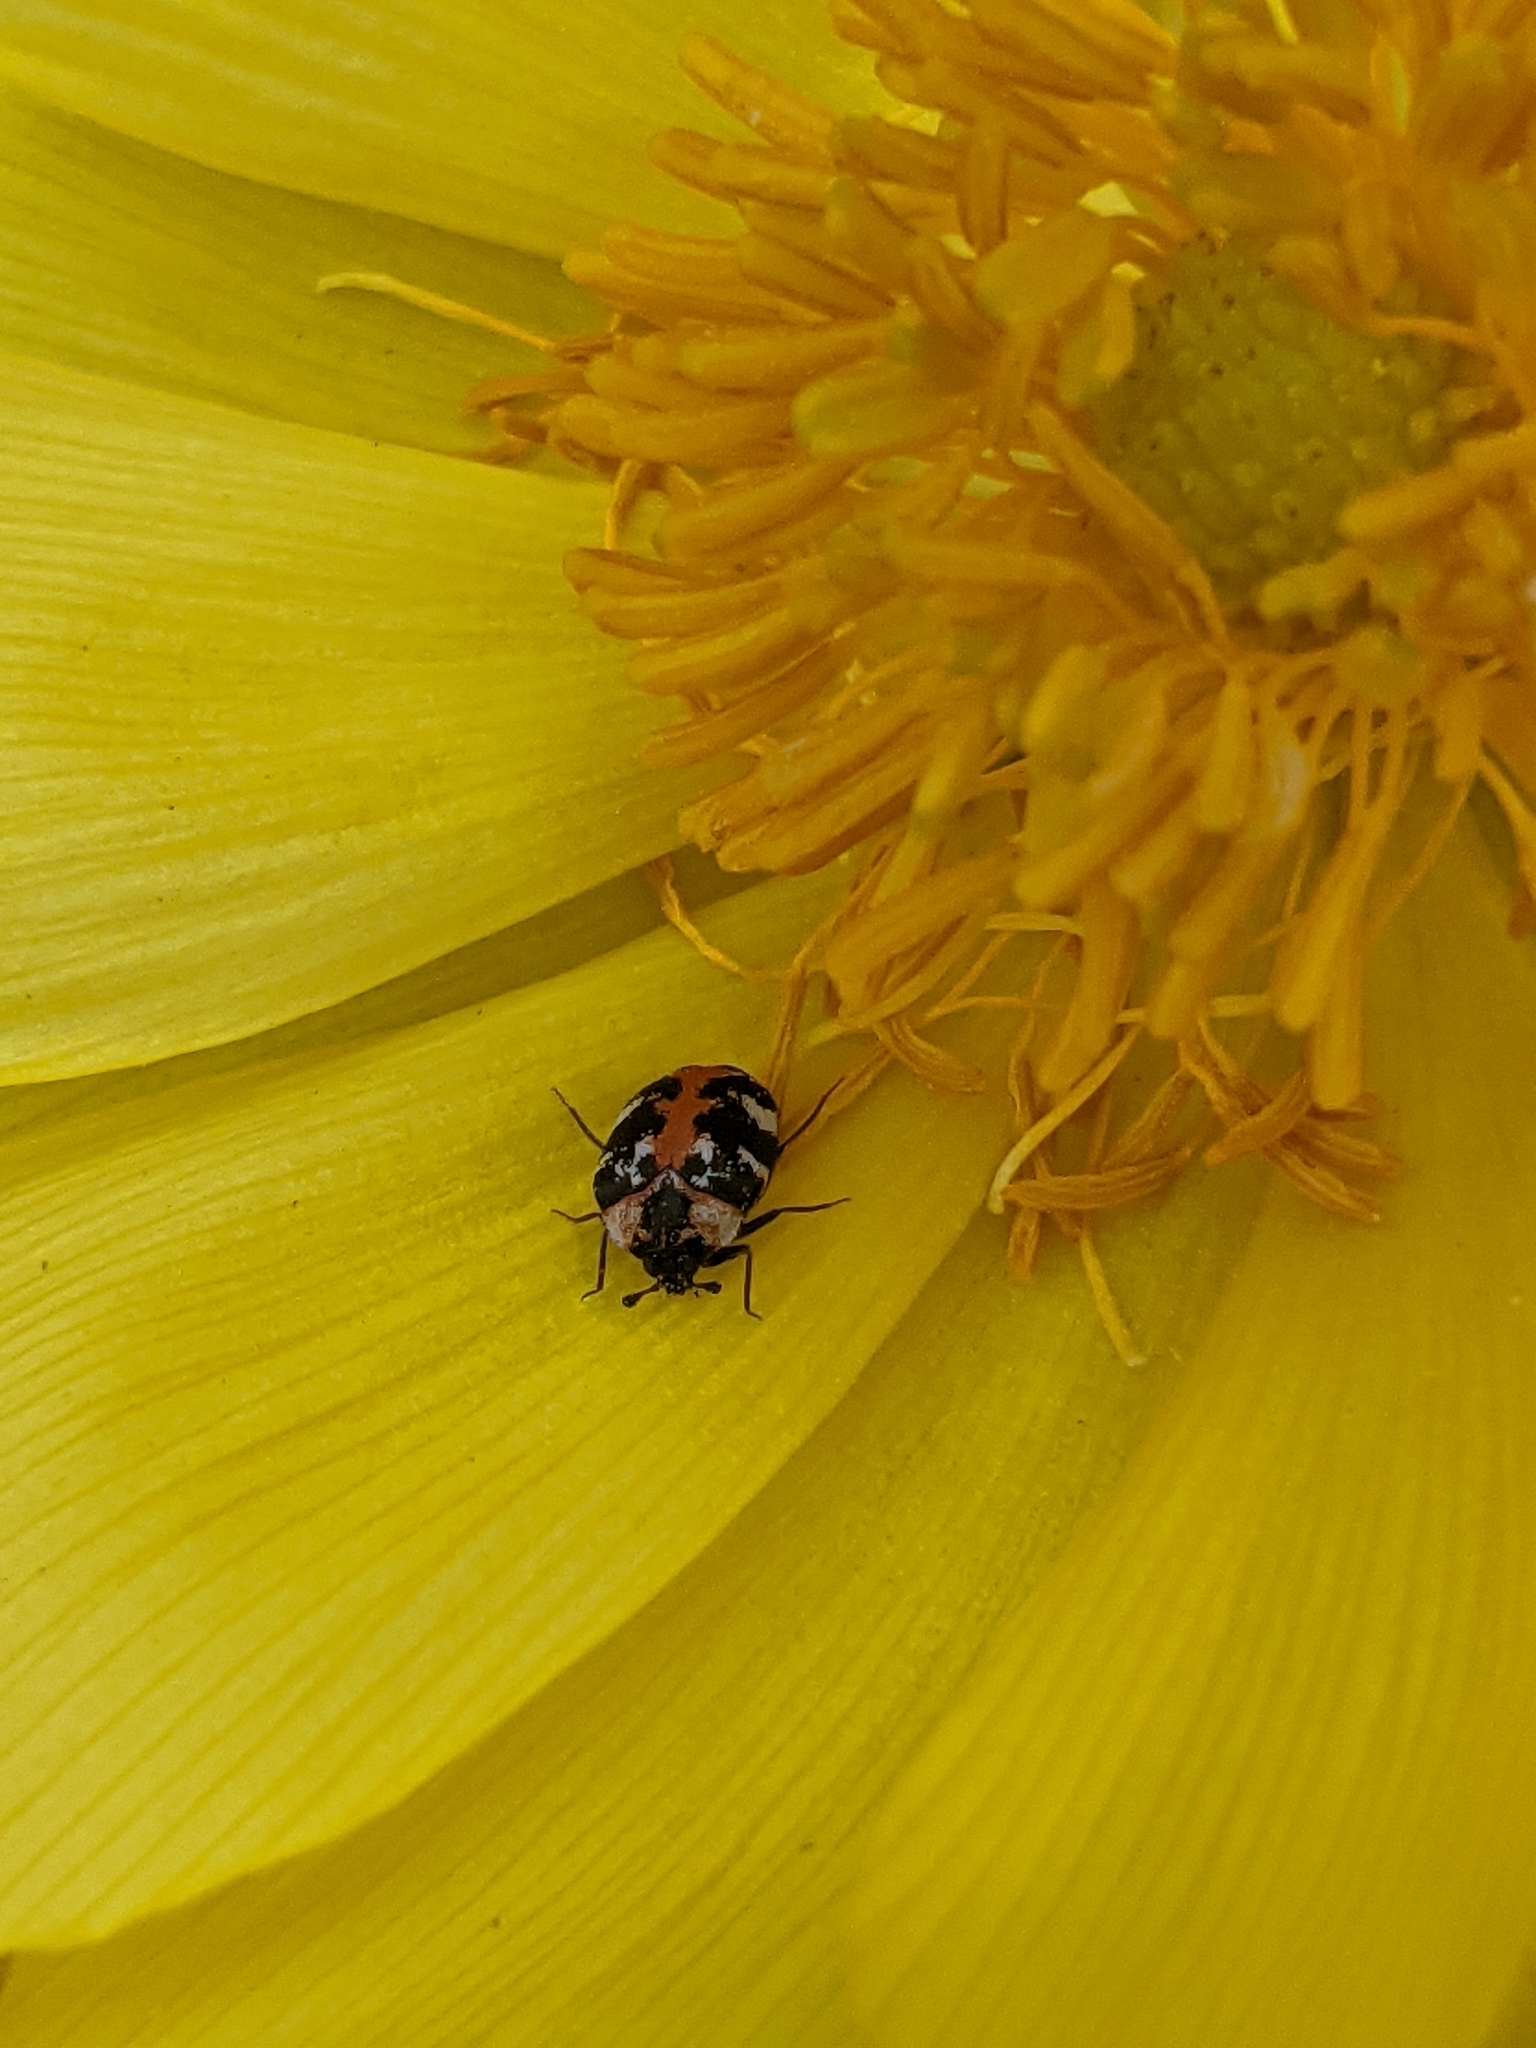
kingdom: Animalia
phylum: Arthropoda
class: Insecta
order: Coleoptera
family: Dermestidae
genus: Anthrenus
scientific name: Anthrenus scrophulariae
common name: Buffalo carpet beetle
